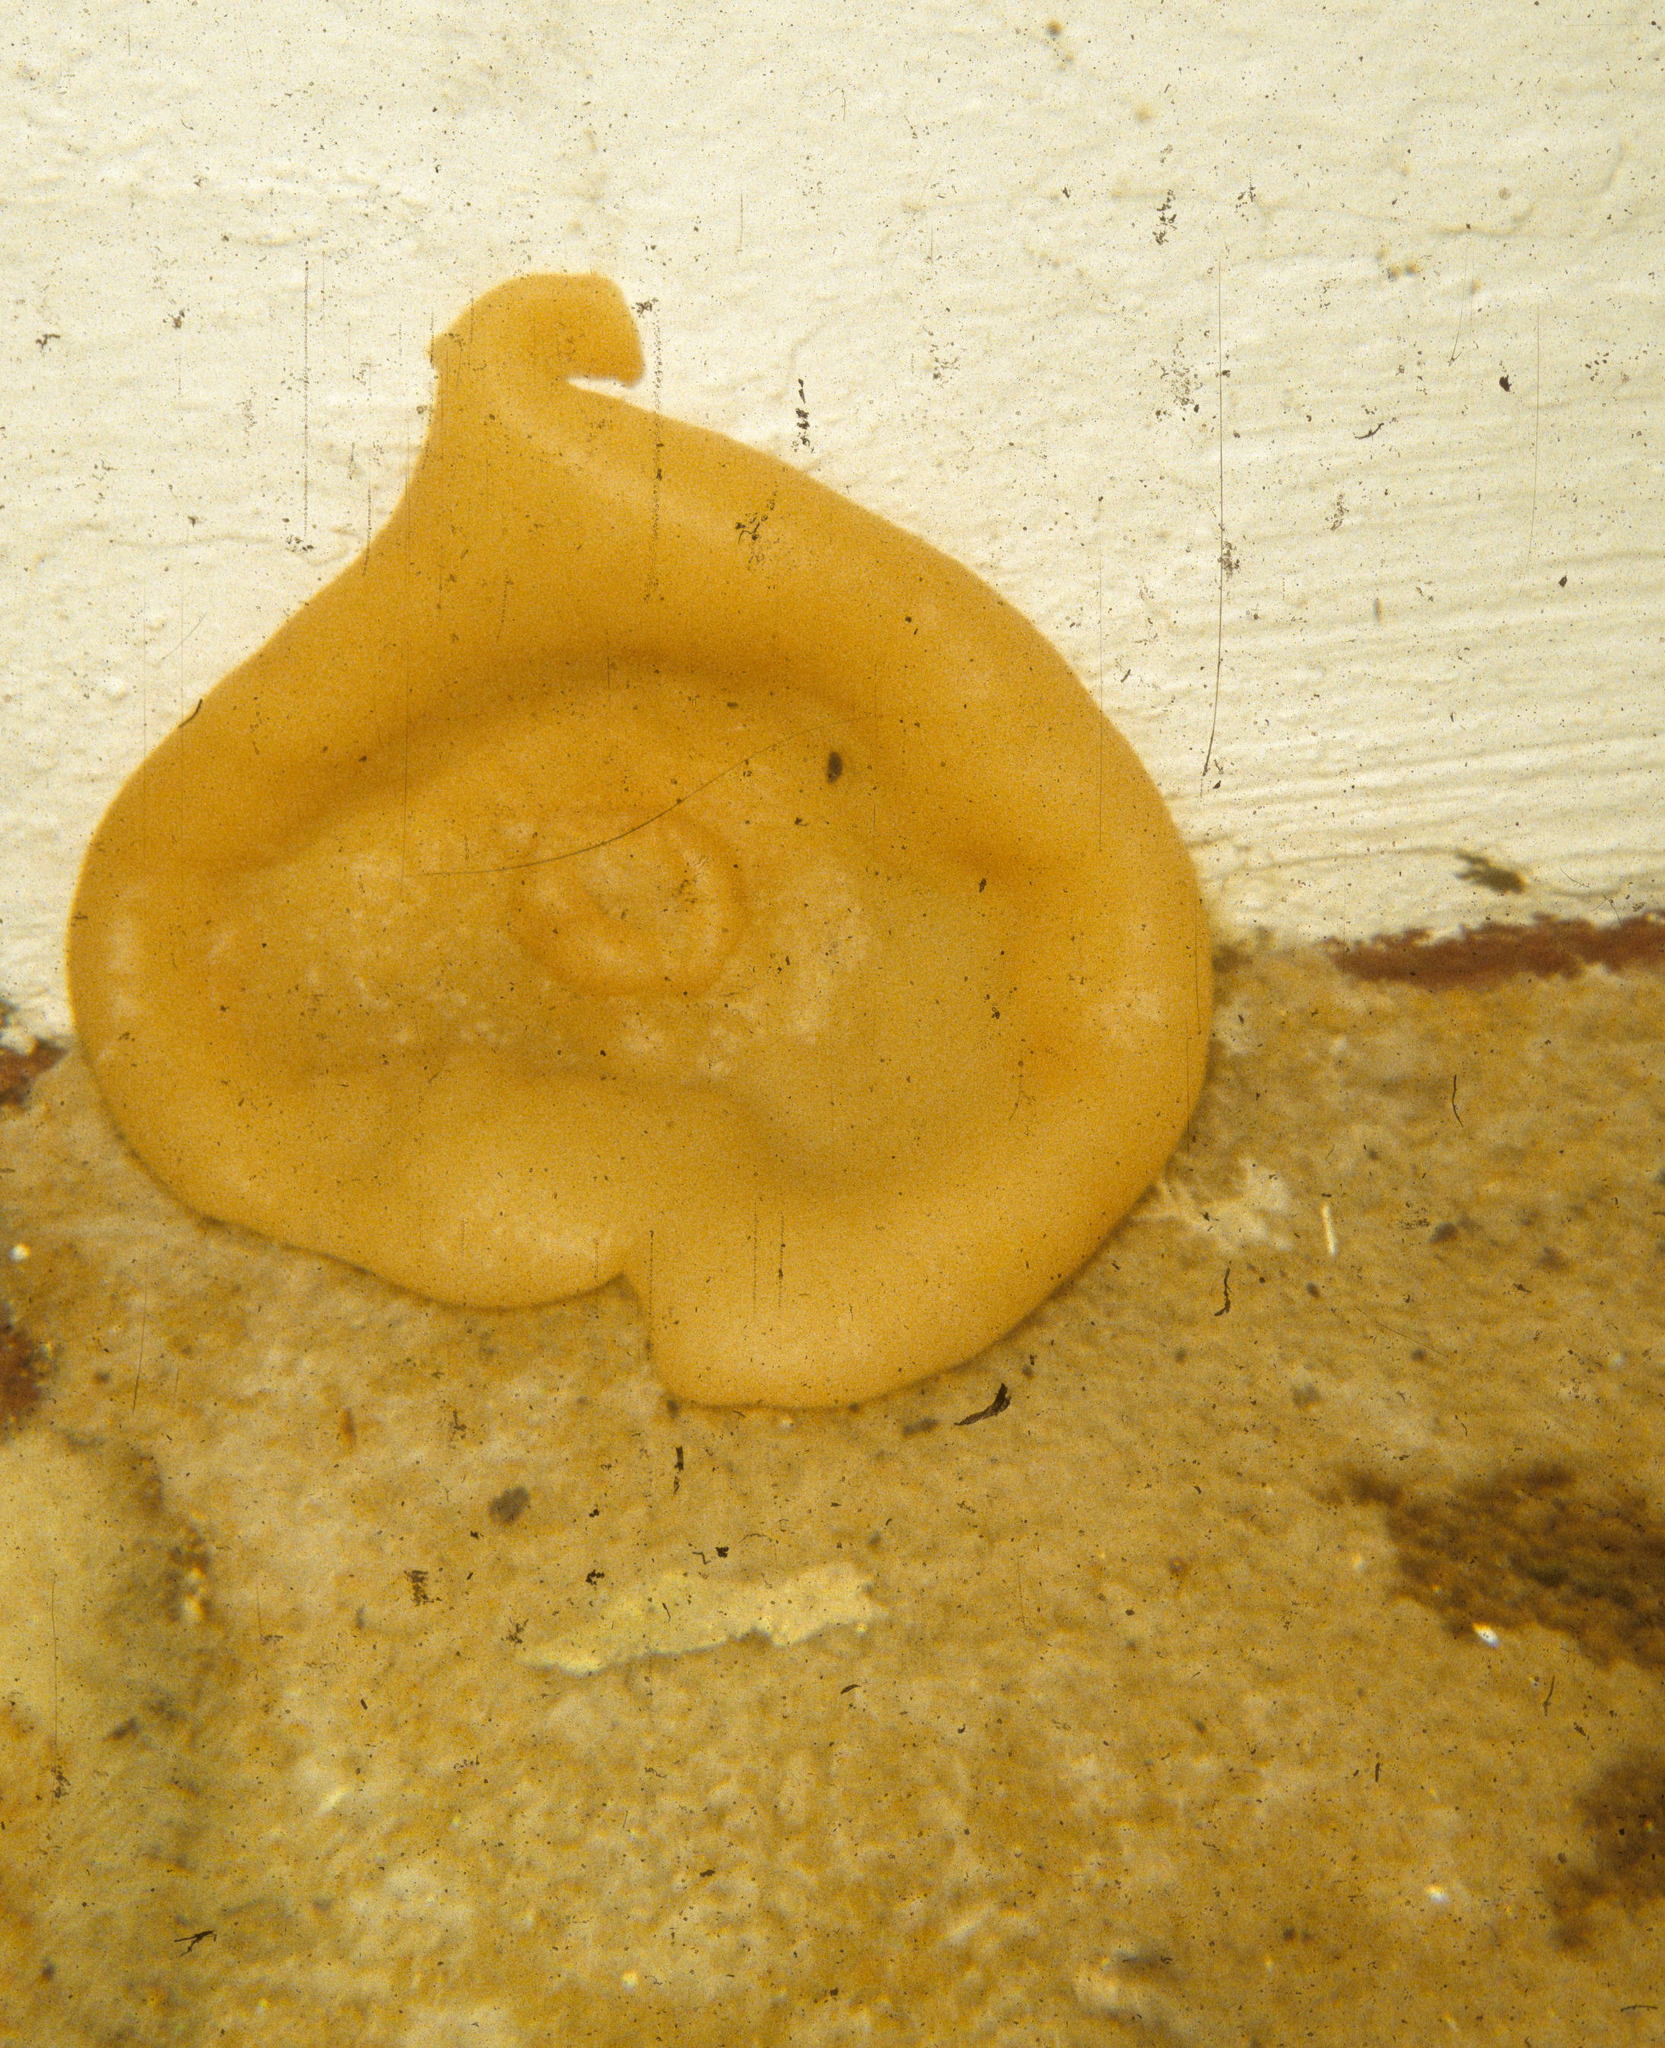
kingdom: Fungi
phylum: Ascomycota
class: Pezizomycetes
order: Pezizales
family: Pezizaceae
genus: Peziza
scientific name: Peziza domiciliana
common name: Home cup
